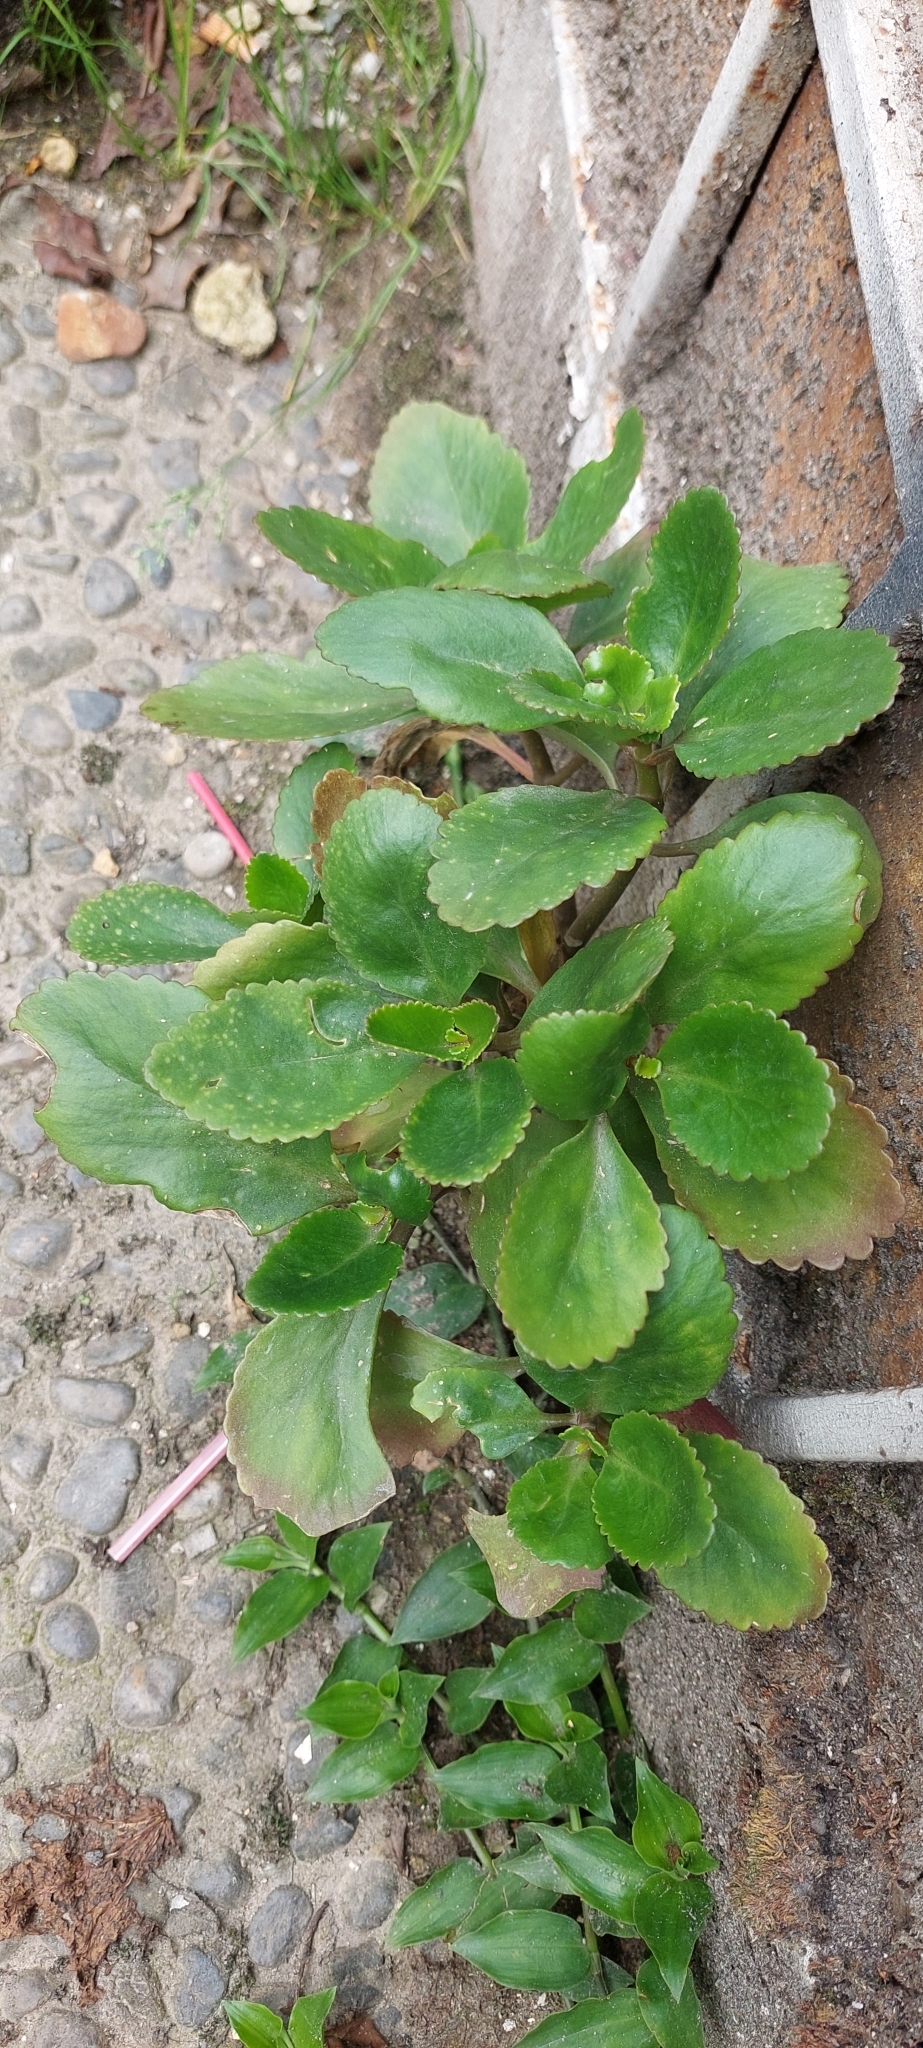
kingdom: Plantae
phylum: Tracheophyta
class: Magnoliopsida
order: Saxifragales
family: Crassulaceae
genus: Kalanchoe
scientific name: Kalanchoe densiflora
